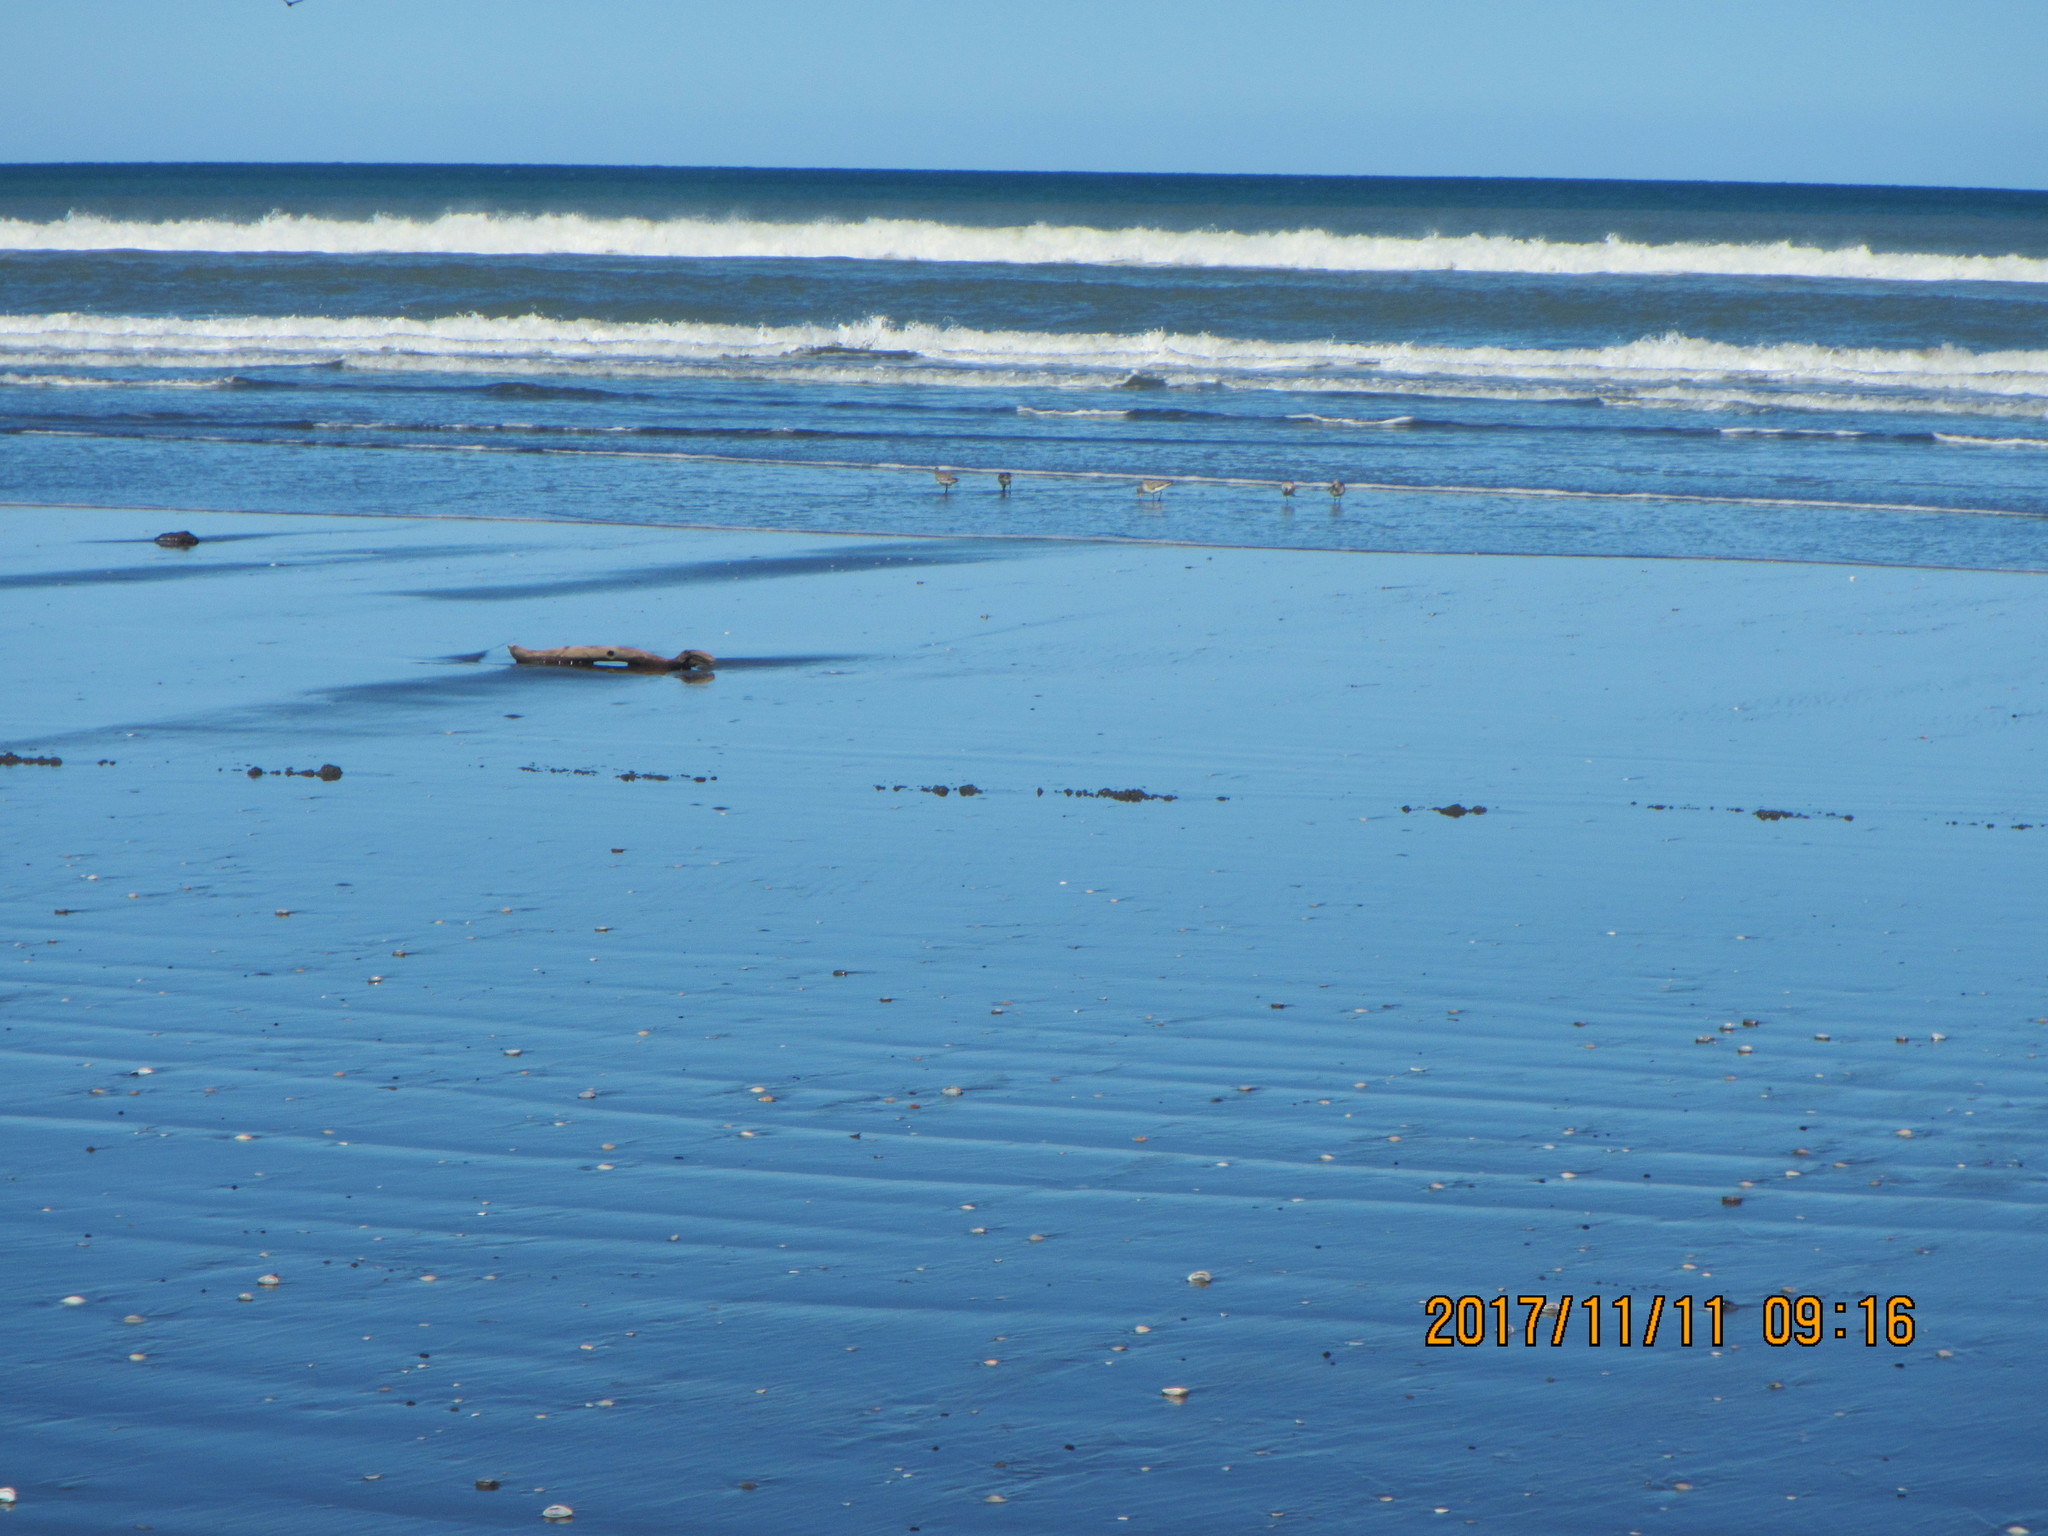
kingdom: Animalia
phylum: Chordata
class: Aves
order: Charadriiformes
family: Scolopacidae
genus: Limosa
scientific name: Limosa lapponica
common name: Bar-tailed godwit
